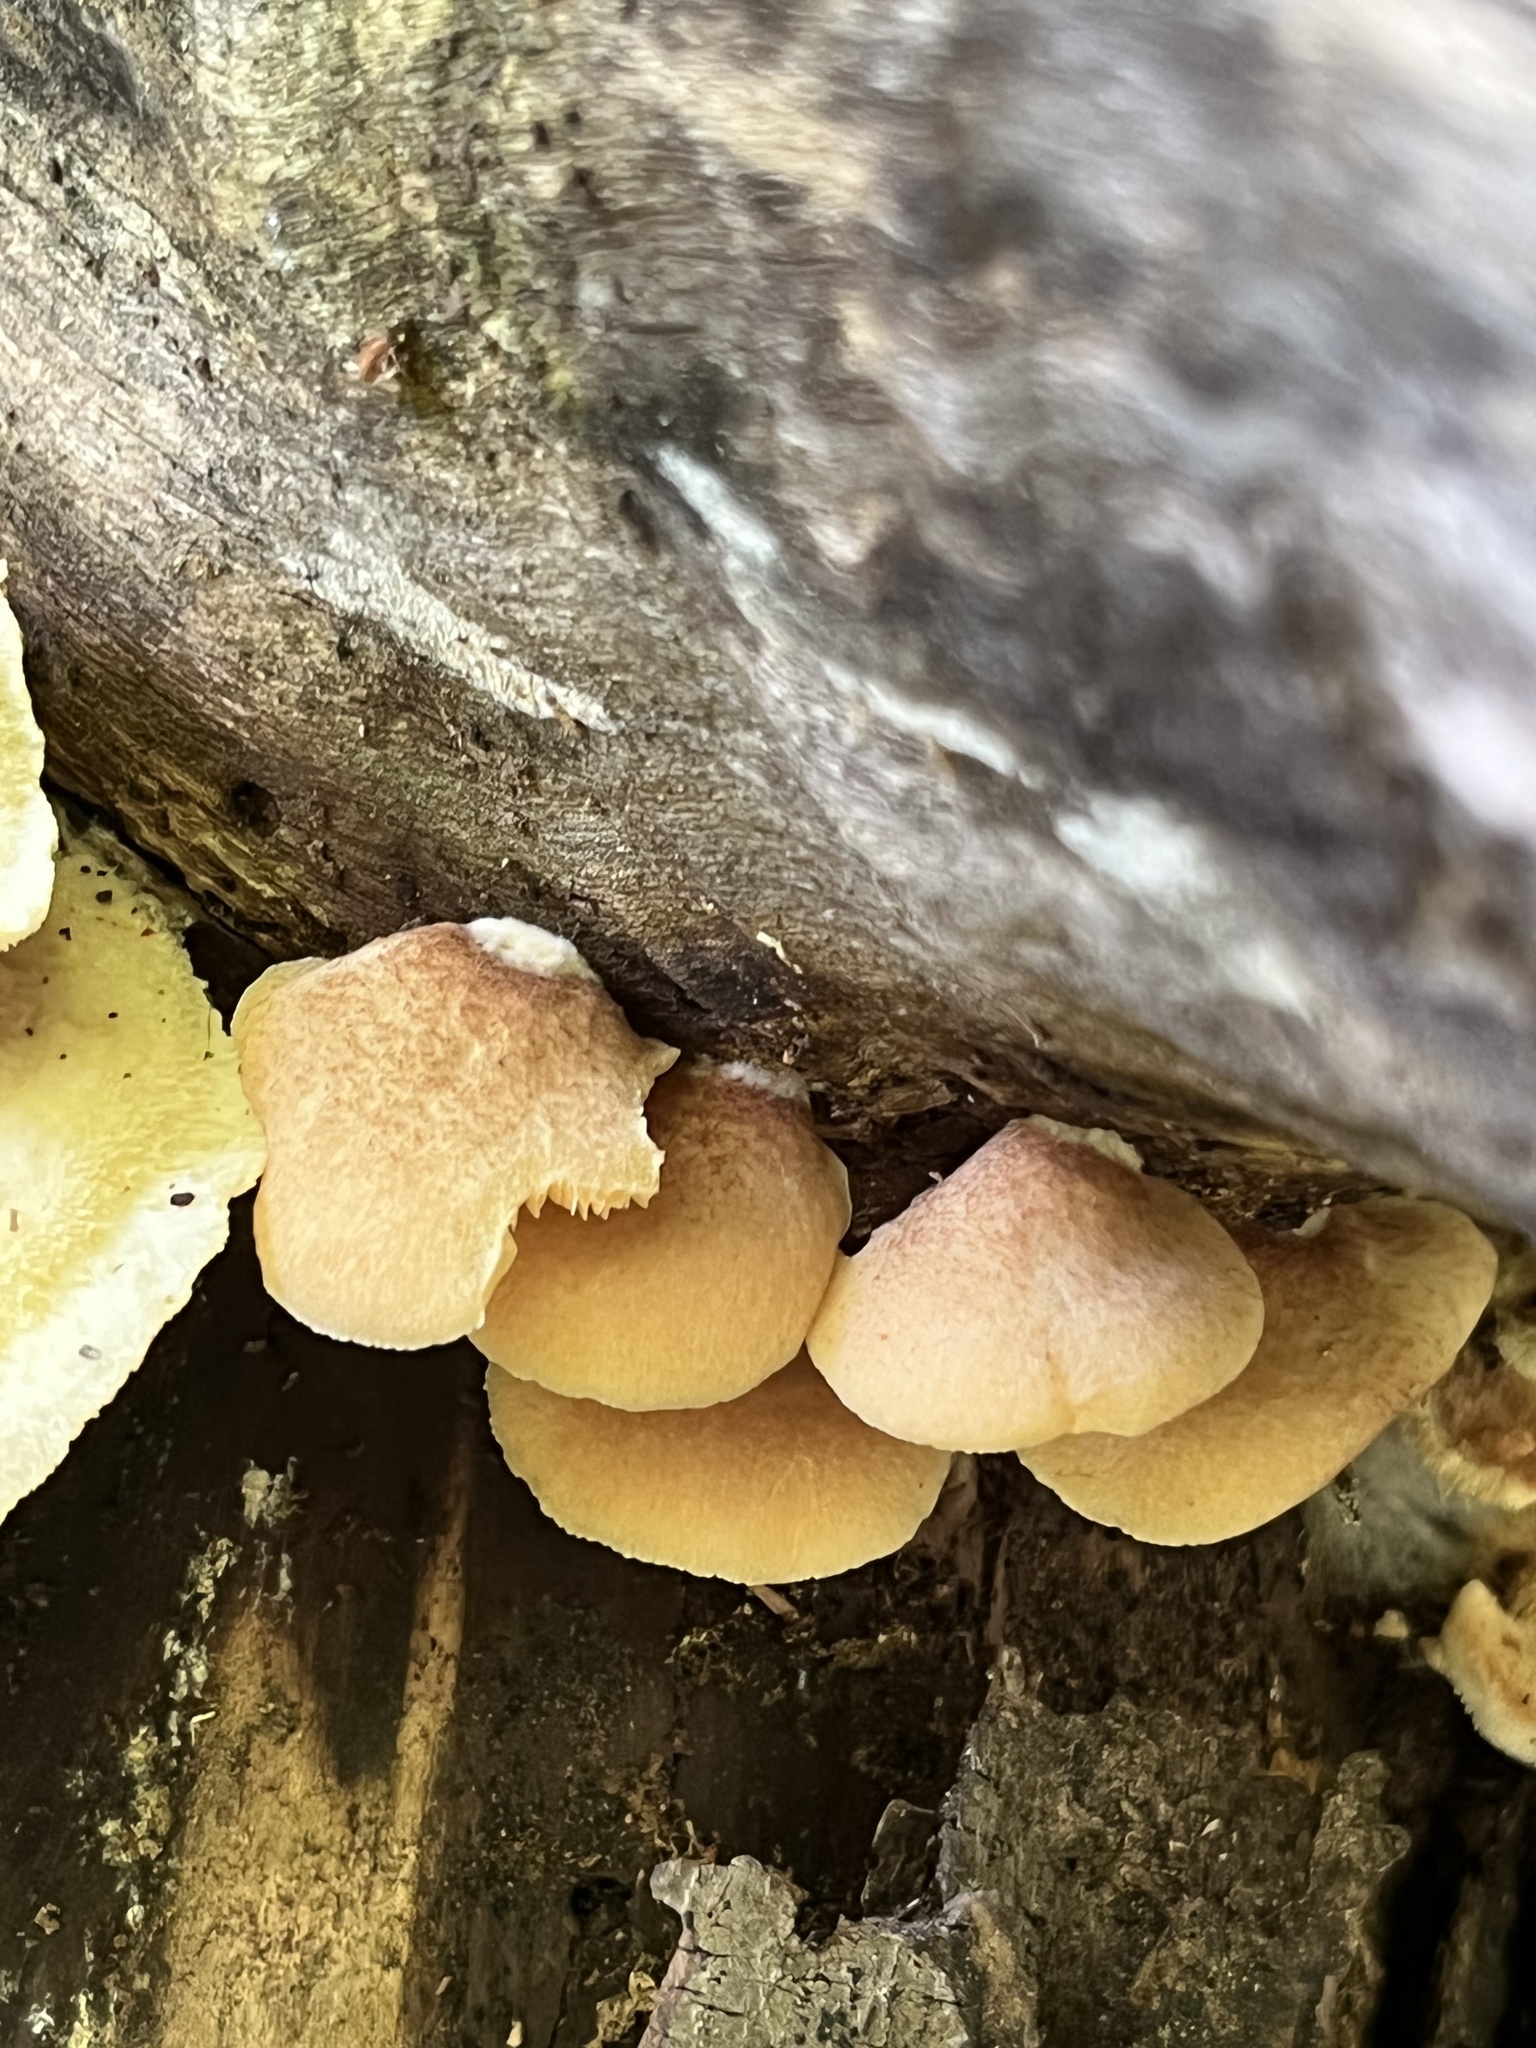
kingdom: Fungi
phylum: Basidiomycota
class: Agaricomycetes
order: Agaricales
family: Crepidotaceae
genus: Crepidotus
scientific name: Crepidotus crocophyllus
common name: Saffron oysterling
